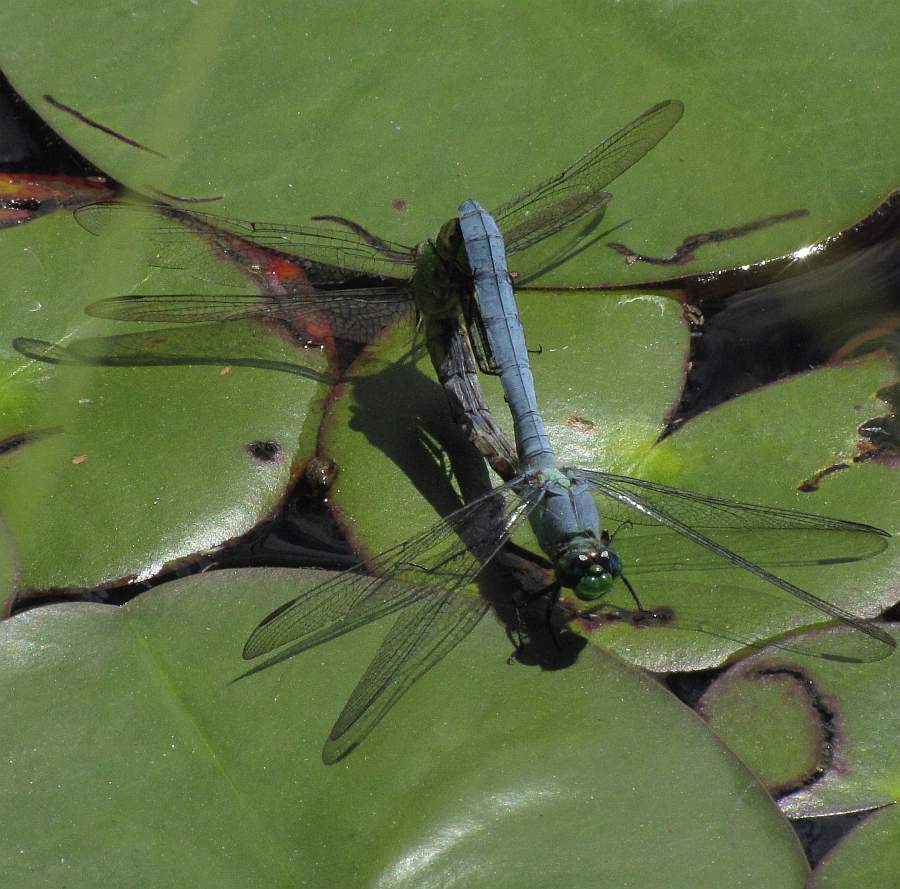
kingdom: Animalia
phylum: Arthropoda
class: Insecta
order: Odonata
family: Libellulidae
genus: Erythemis
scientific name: Erythemis simplicicollis
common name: Eastern pondhawk
